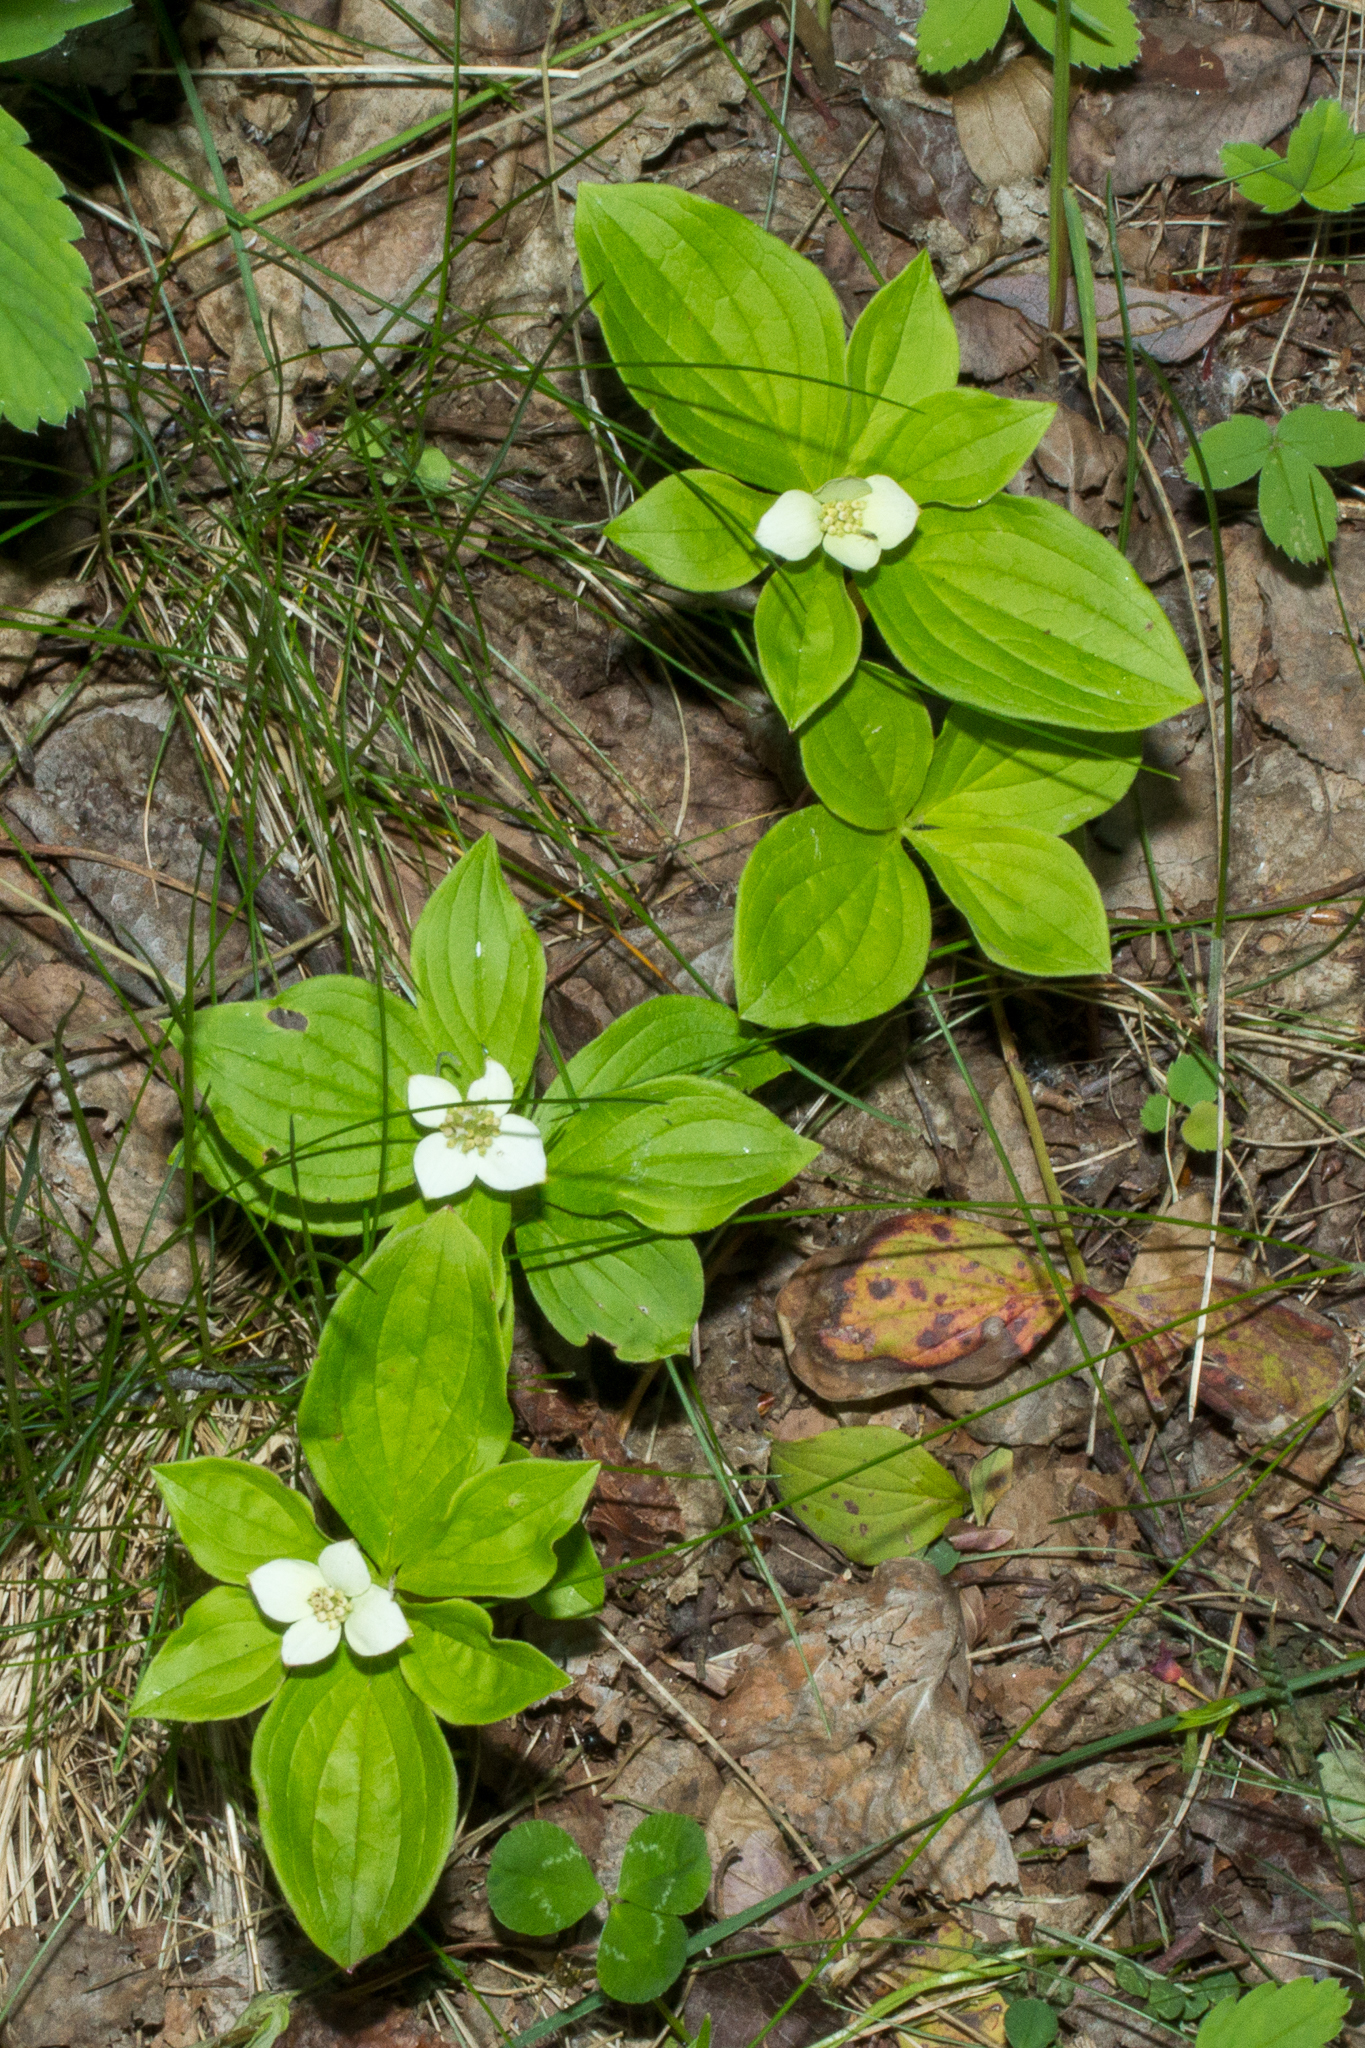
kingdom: Plantae
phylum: Tracheophyta
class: Magnoliopsida
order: Cornales
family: Cornaceae
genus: Cornus
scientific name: Cornus canadensis
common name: Creeping dogwood
